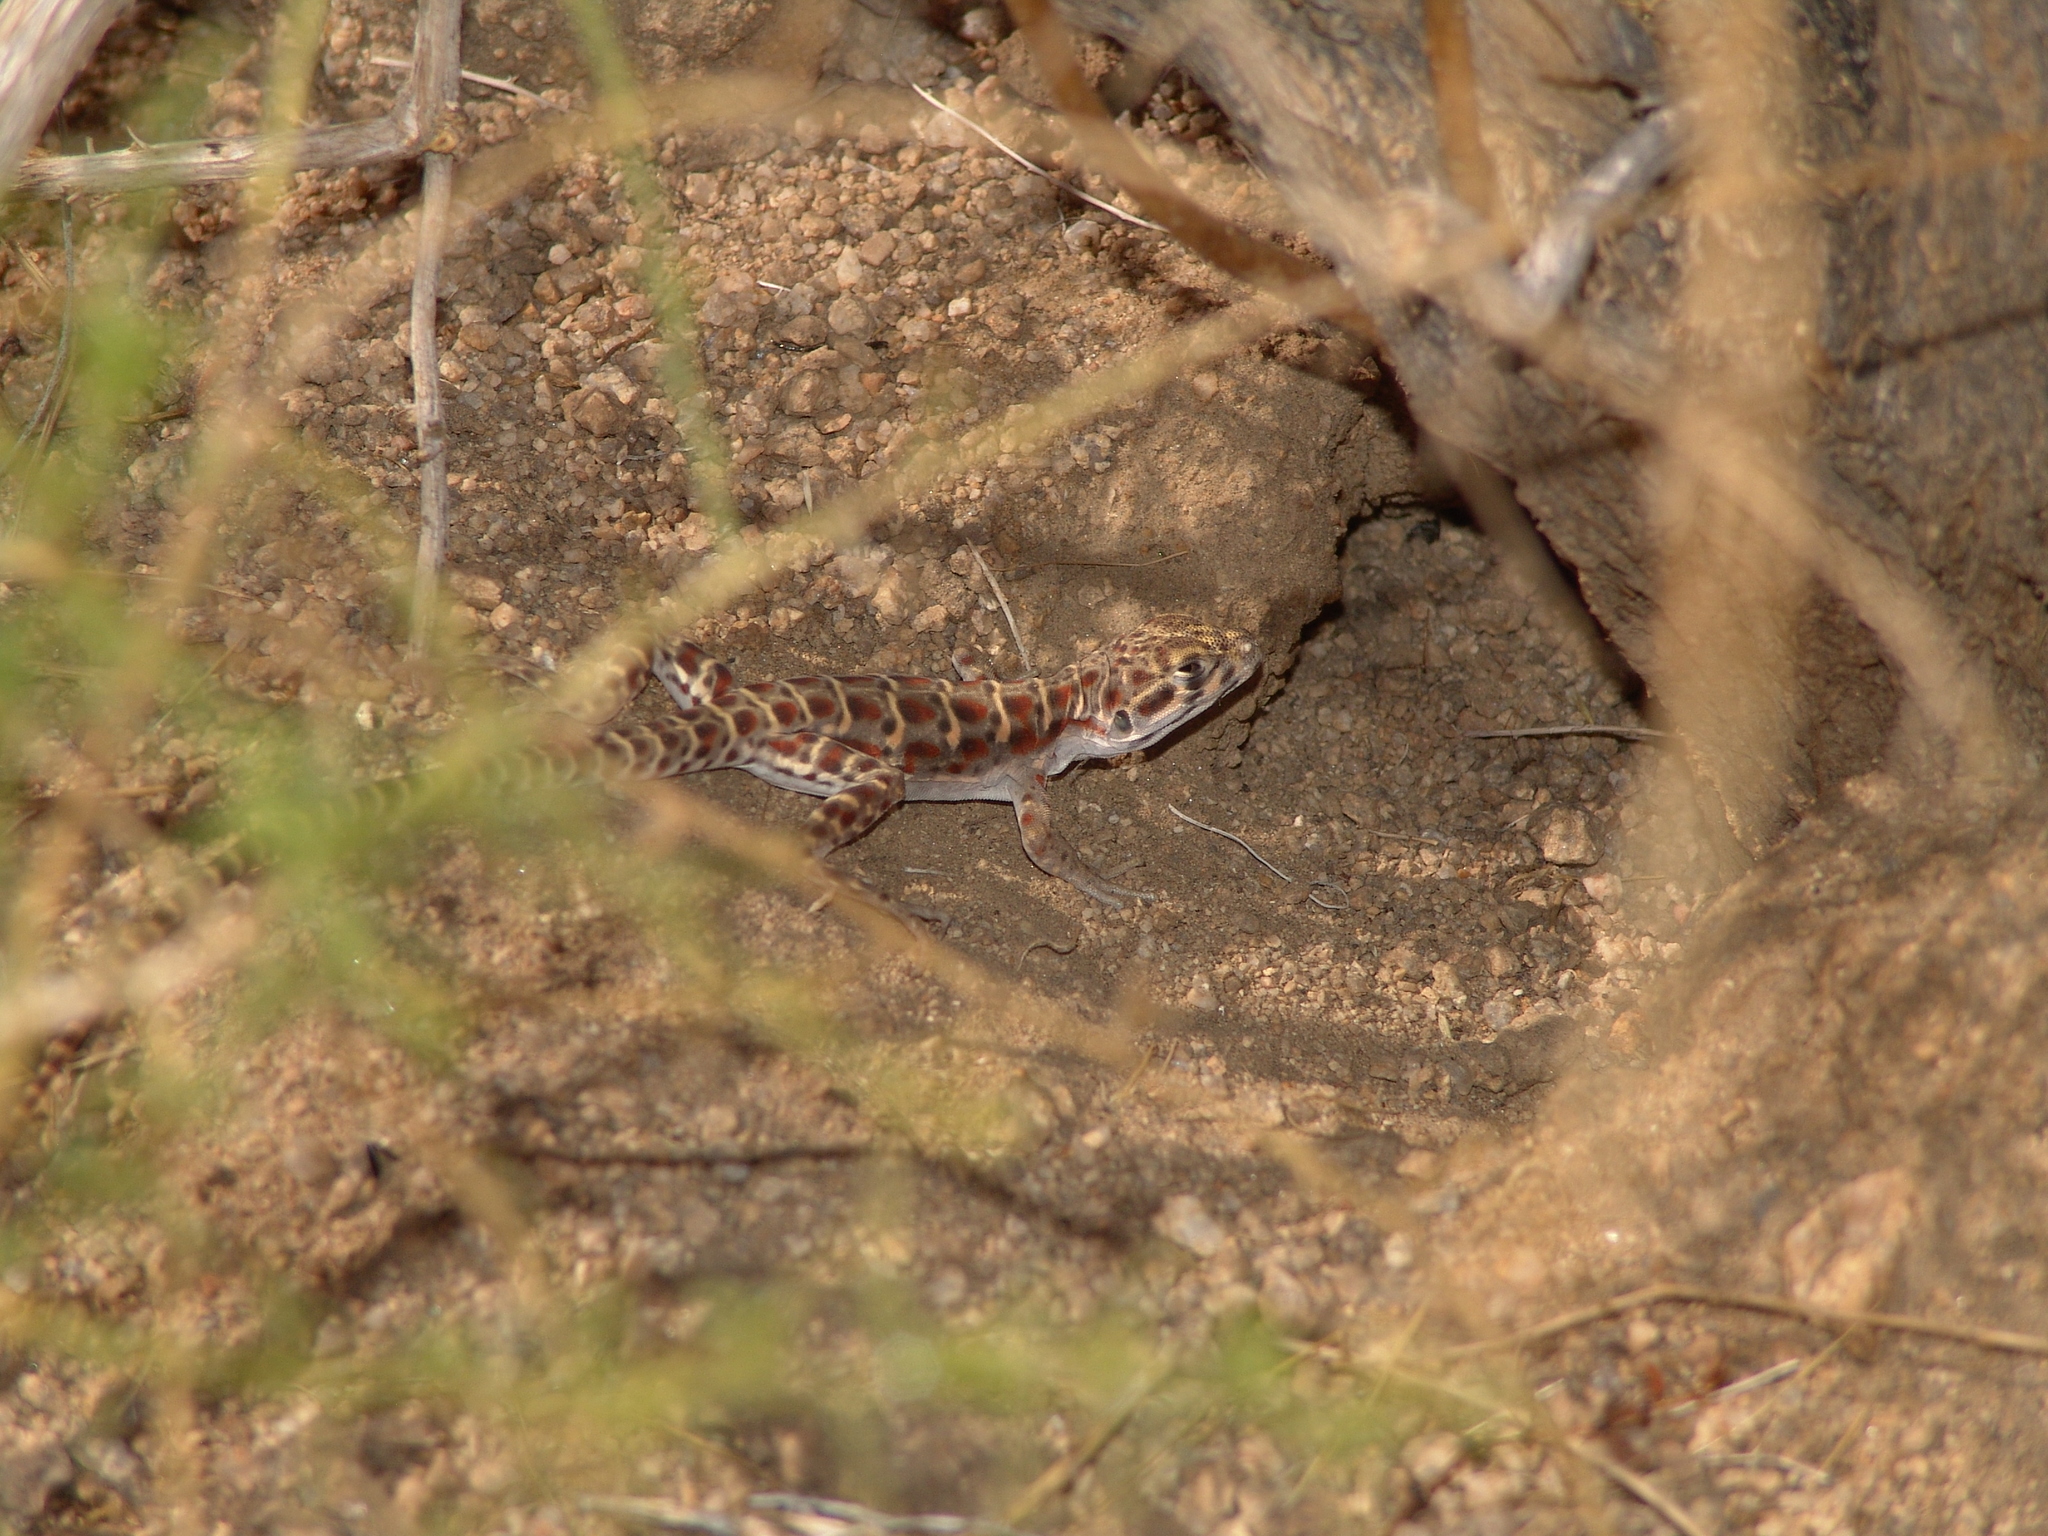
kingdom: Animalia
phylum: Chordata
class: Squamata
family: Crotaphytidae
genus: Gambelia
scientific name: Gambelia wislizenii
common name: Longnose leopard lizard
